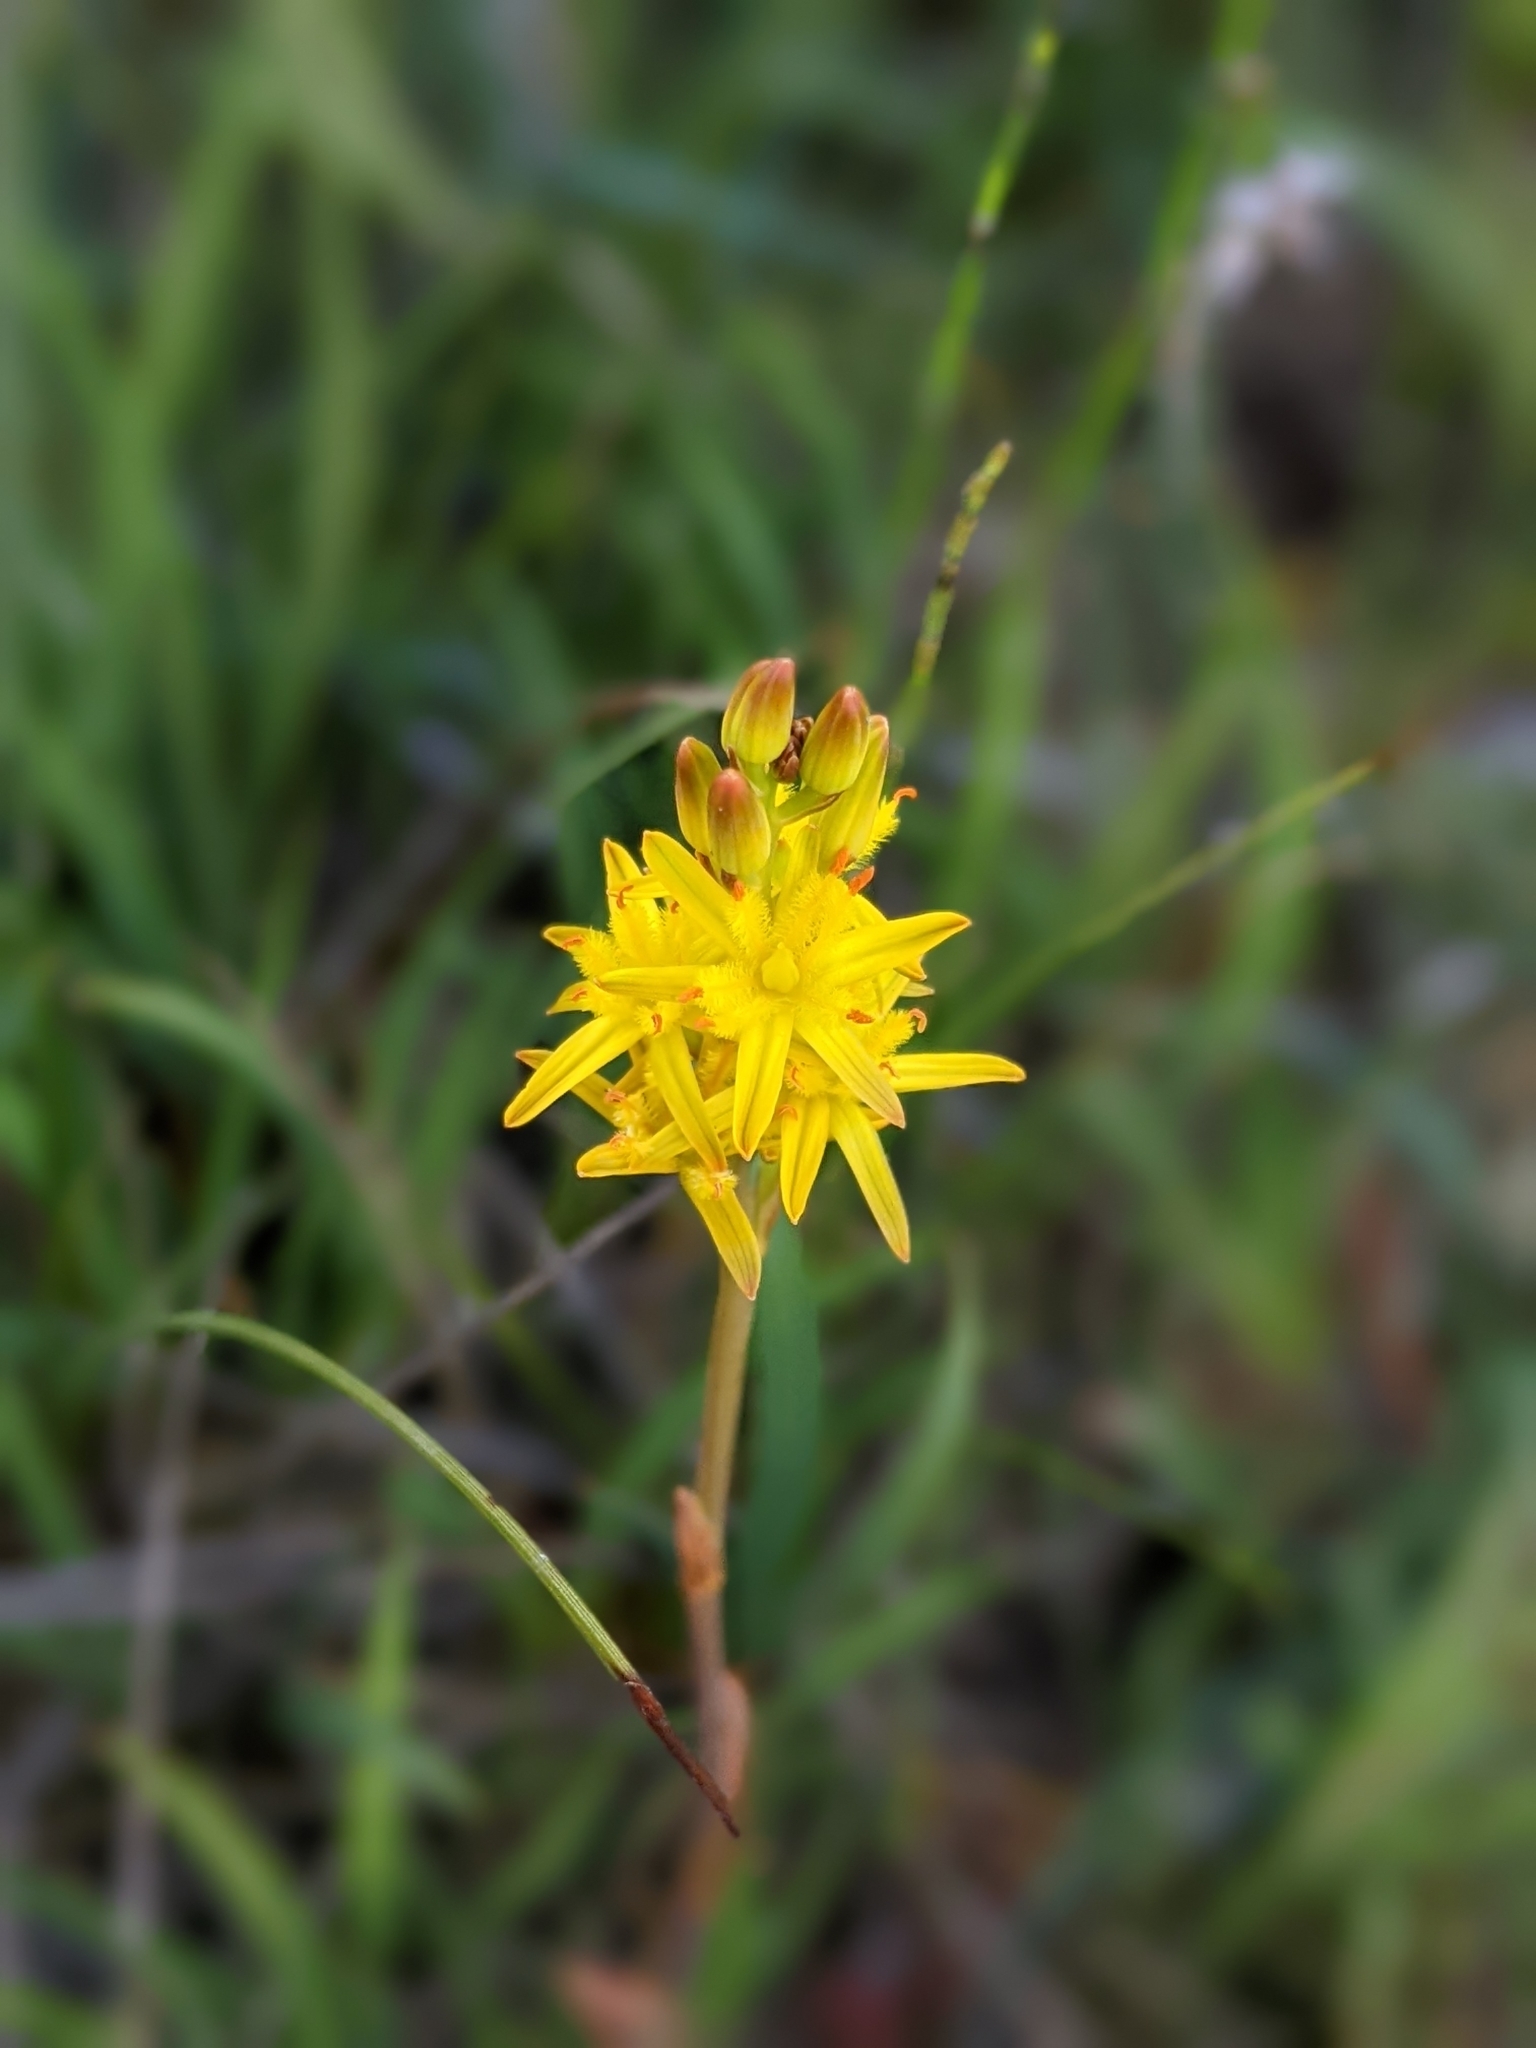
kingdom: Plantae
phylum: Tracheophyta
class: Liliopsida
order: Dioscoreales
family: Nartheciaceae
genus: Narthecium
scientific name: Narthecium ossifragum
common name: Bog asphodel
